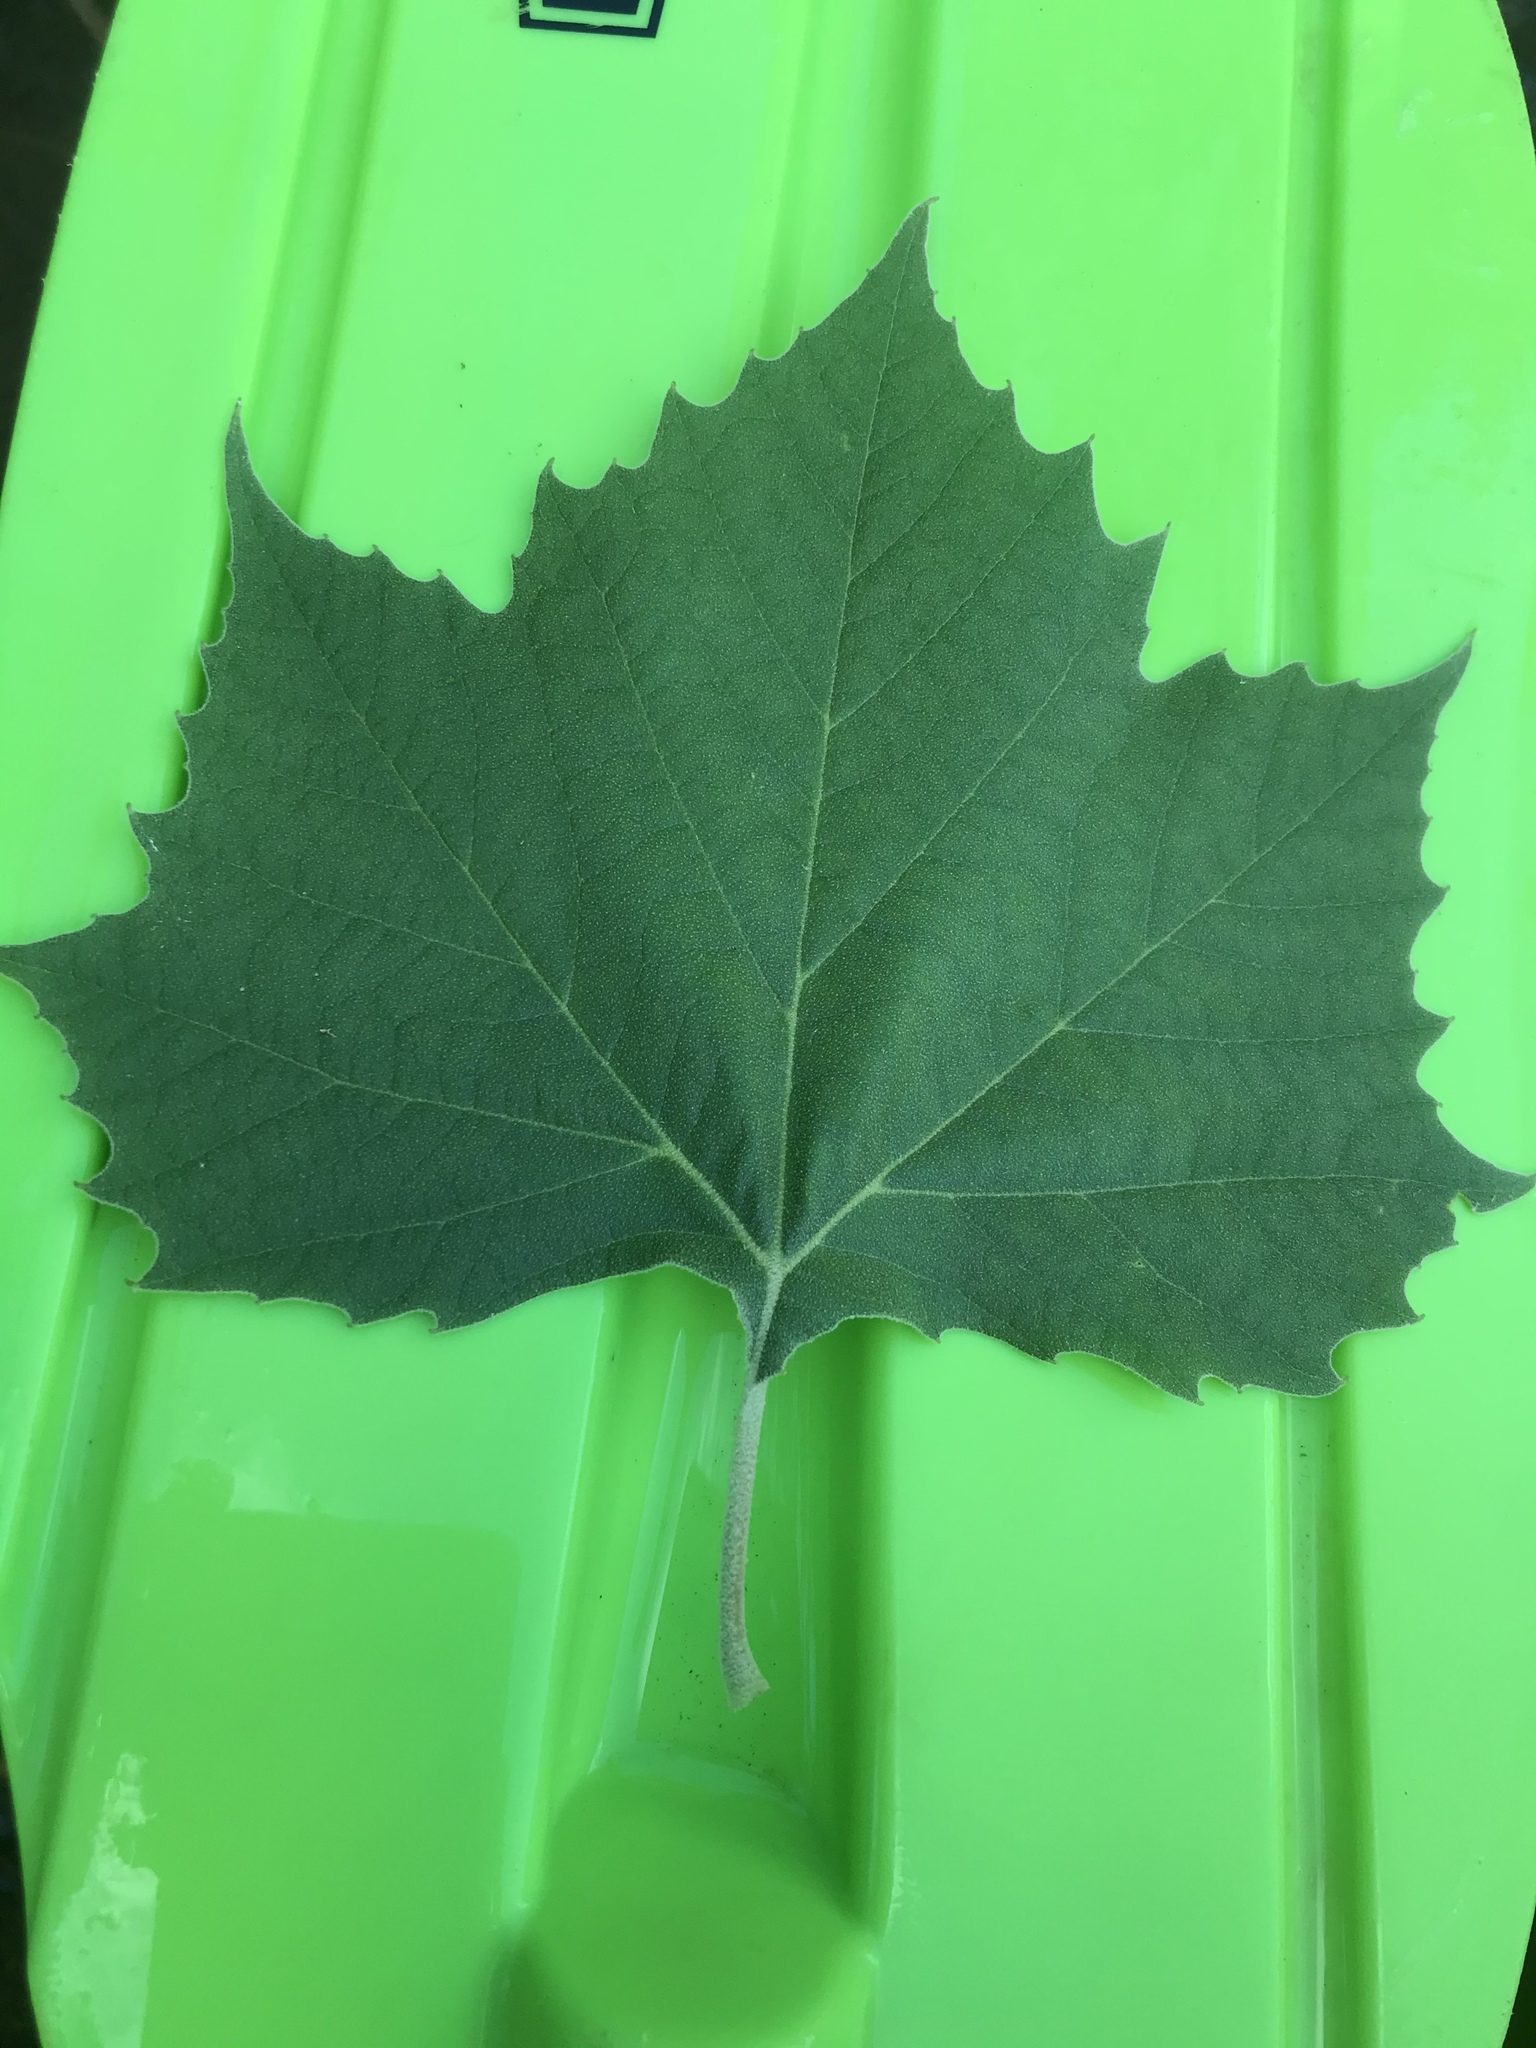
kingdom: Plantae
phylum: Tracheophyta
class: Magnoliopsida
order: Proteales
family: Platanaceae
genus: Platanus
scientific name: Platanus occidentalis
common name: American sycamore
